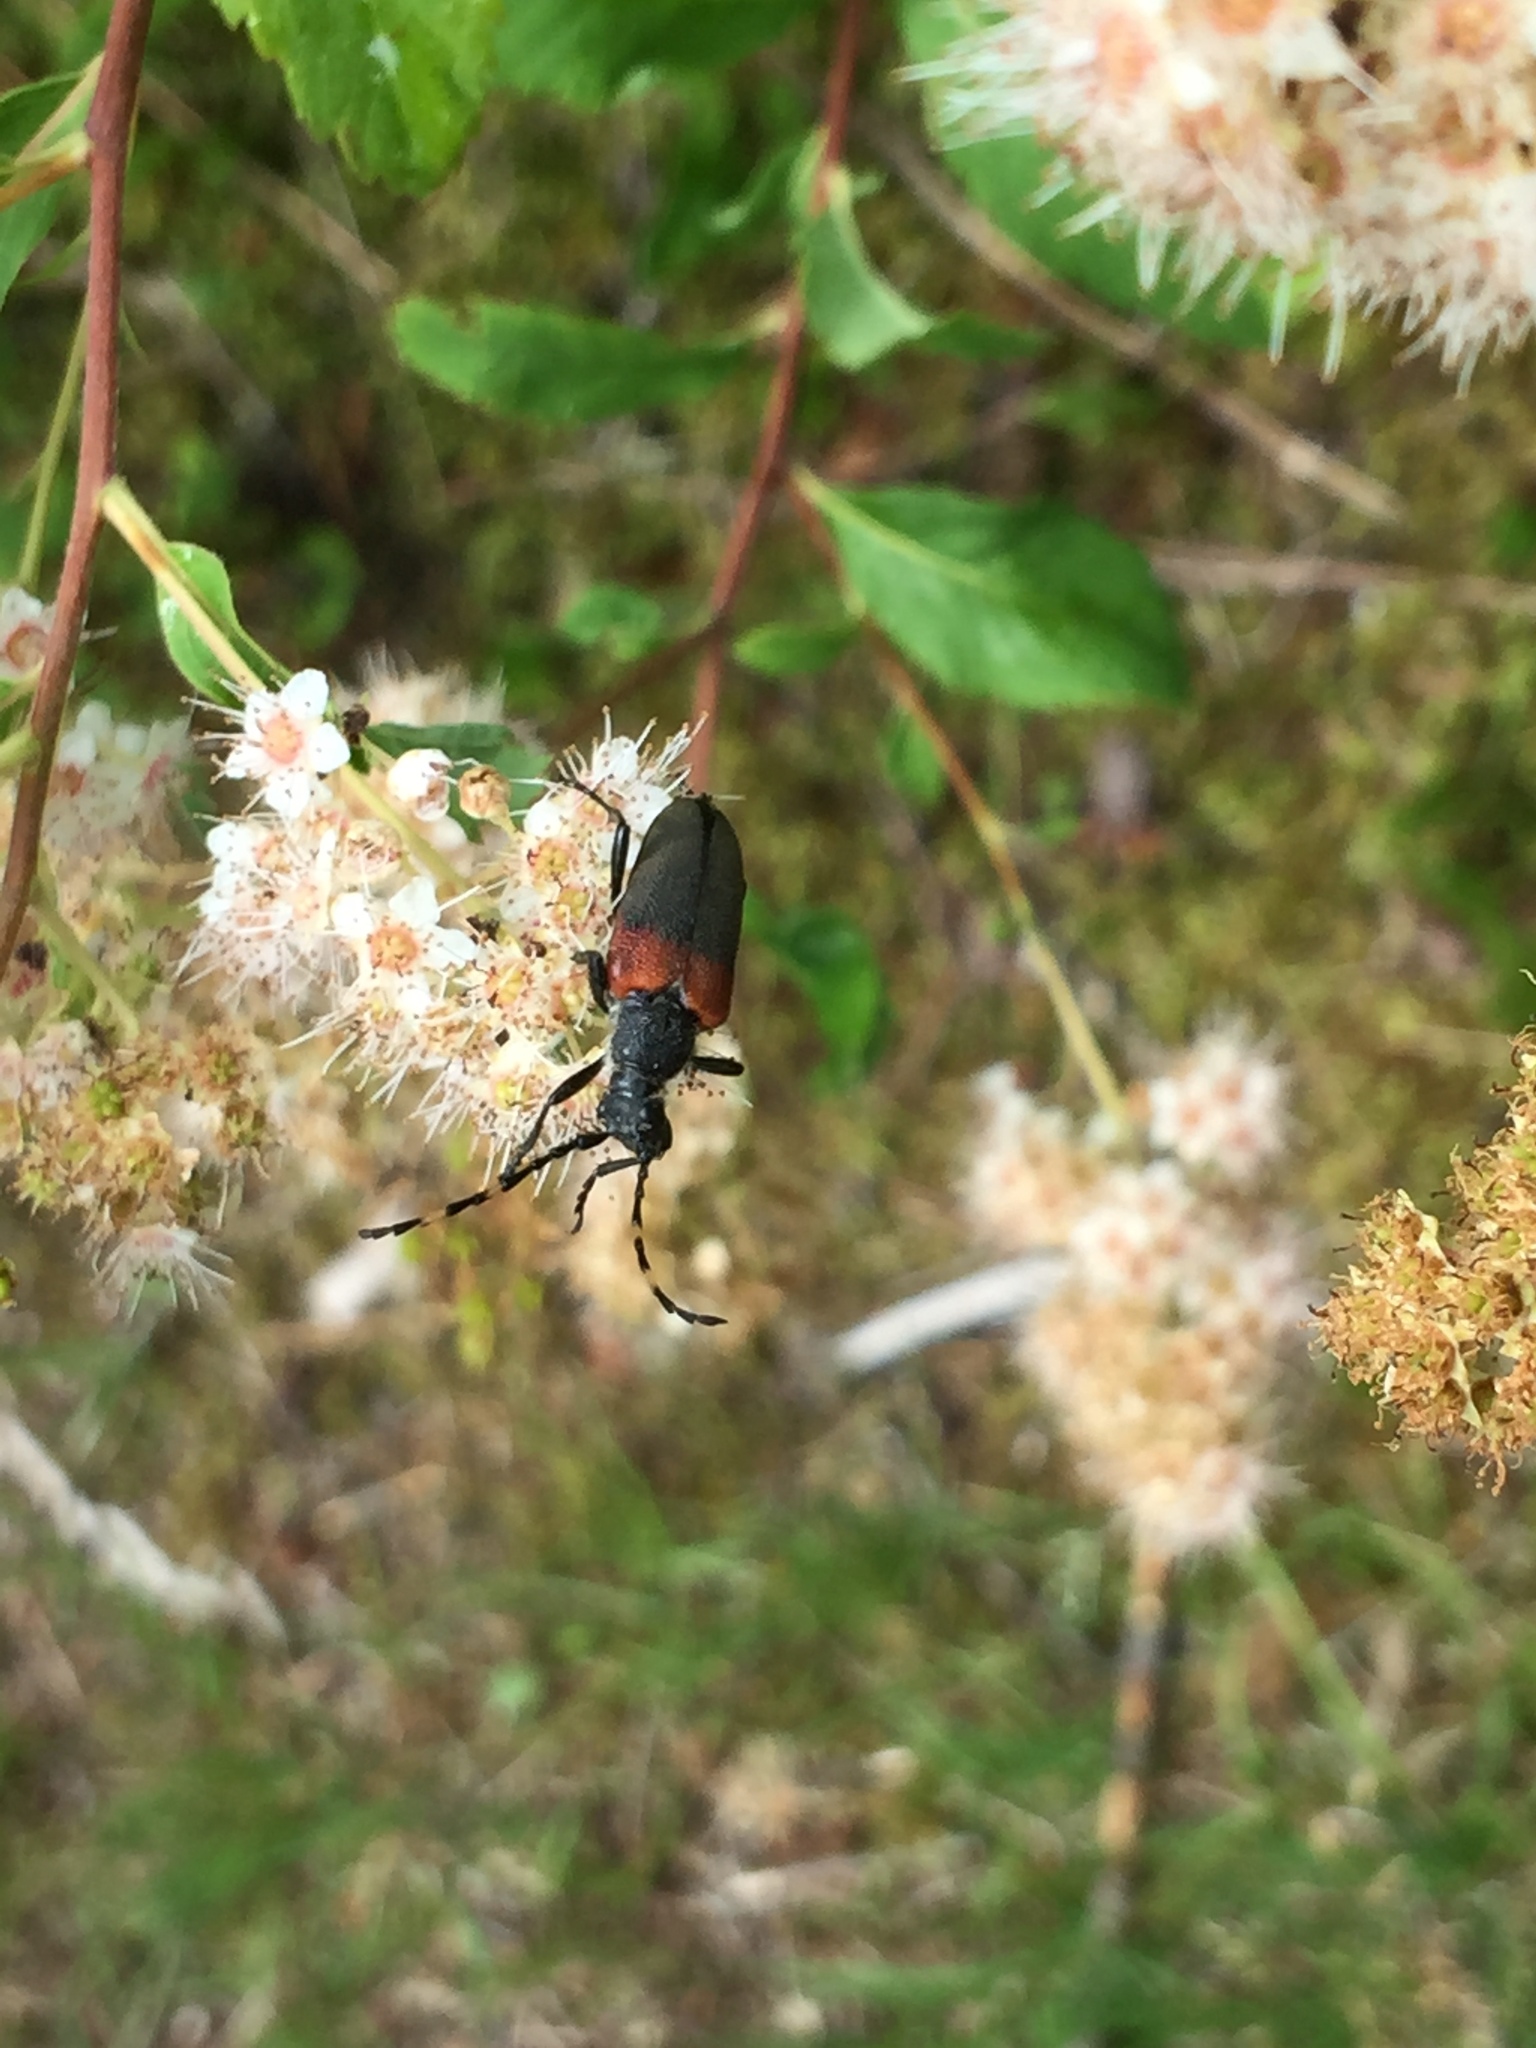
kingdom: Animalia
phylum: Arthropoda
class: Insecta
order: Coleoptera
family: Cerambycidae
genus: Stictoleptura
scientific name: Stictoleptura canadensis
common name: Red-shouldered pine borer
